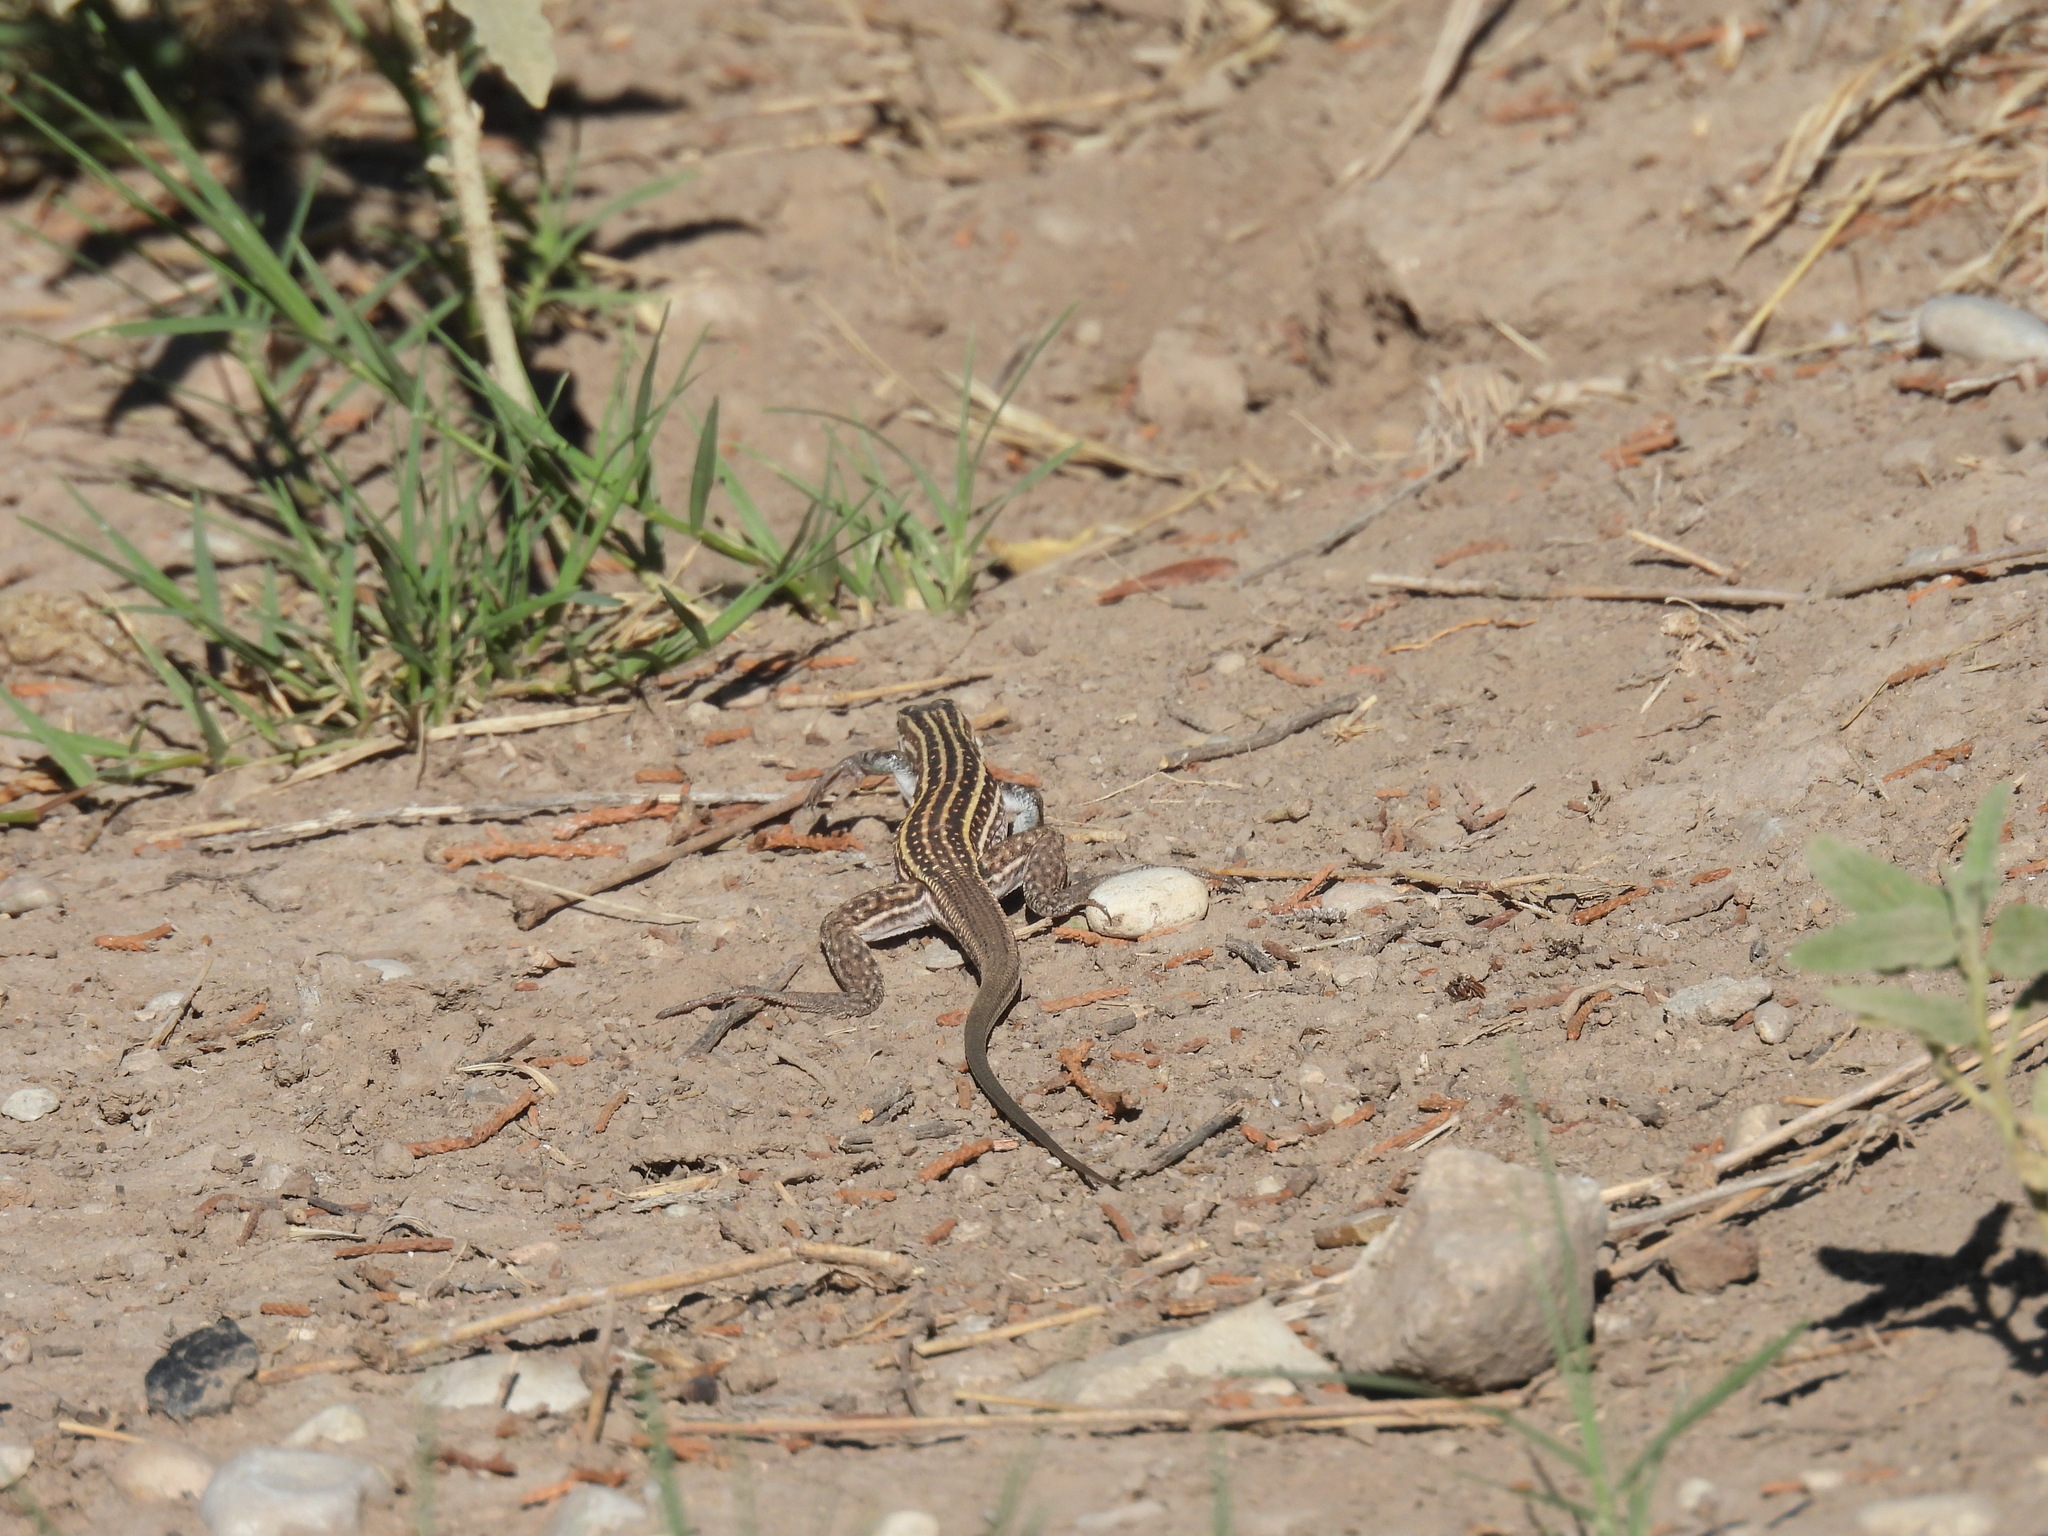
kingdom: Animalia
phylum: Chordata
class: Squamata
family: Teiidae
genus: Aspidoscelis
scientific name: Aspidoscelis exsanguis
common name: Chihuahuan spotted whiptail
